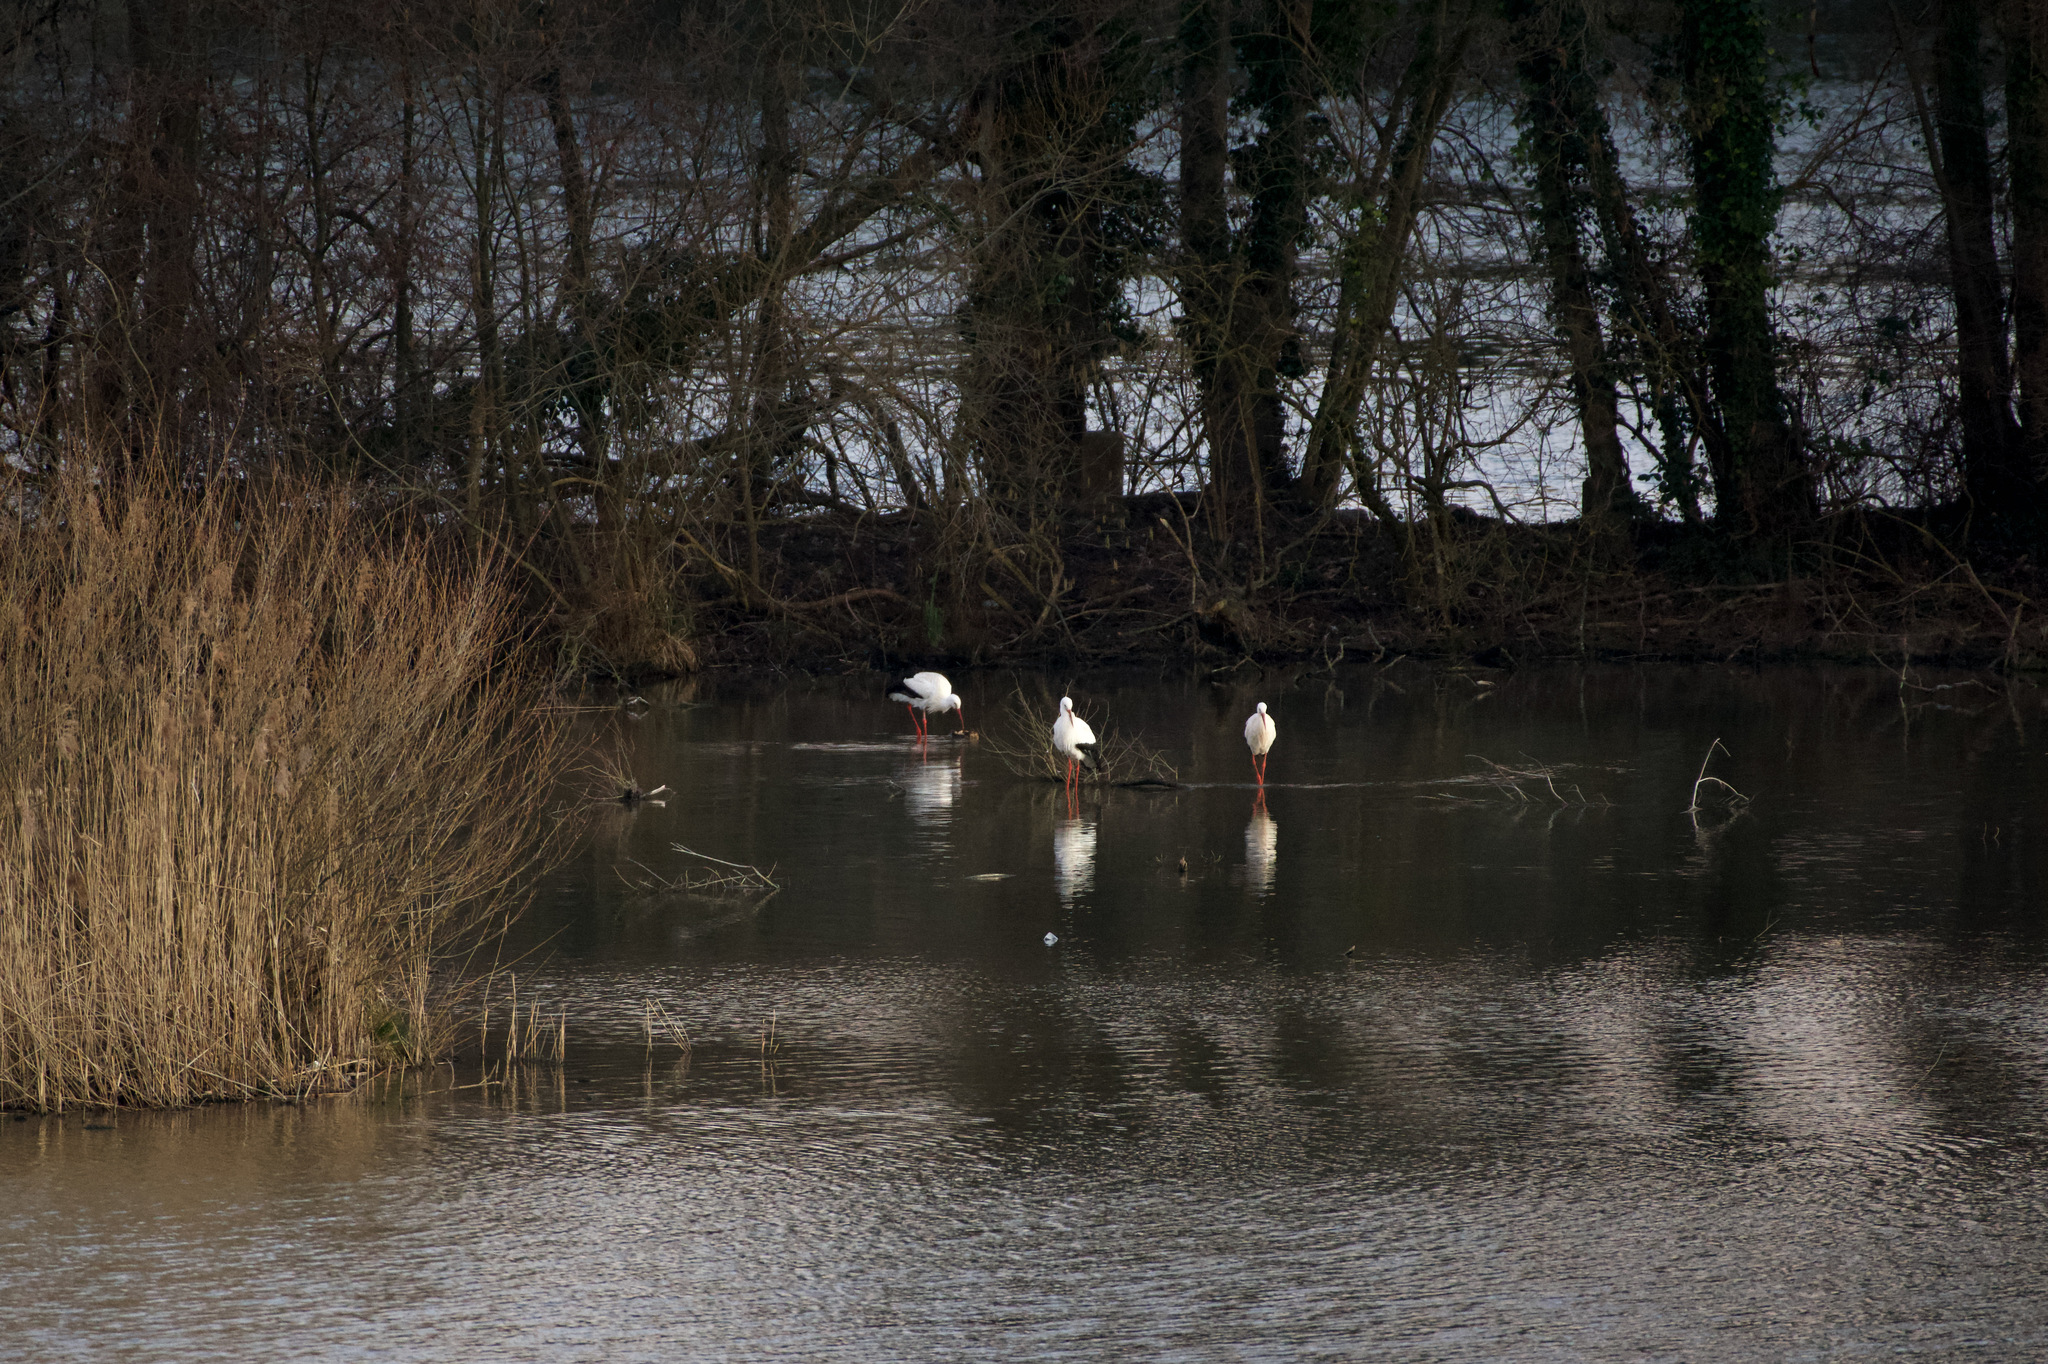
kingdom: Animalia
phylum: Chordata
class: Aves
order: Ciconiiformes
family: Ciconiidae
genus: Ciconia
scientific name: Ciconia ciconia
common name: White stork
